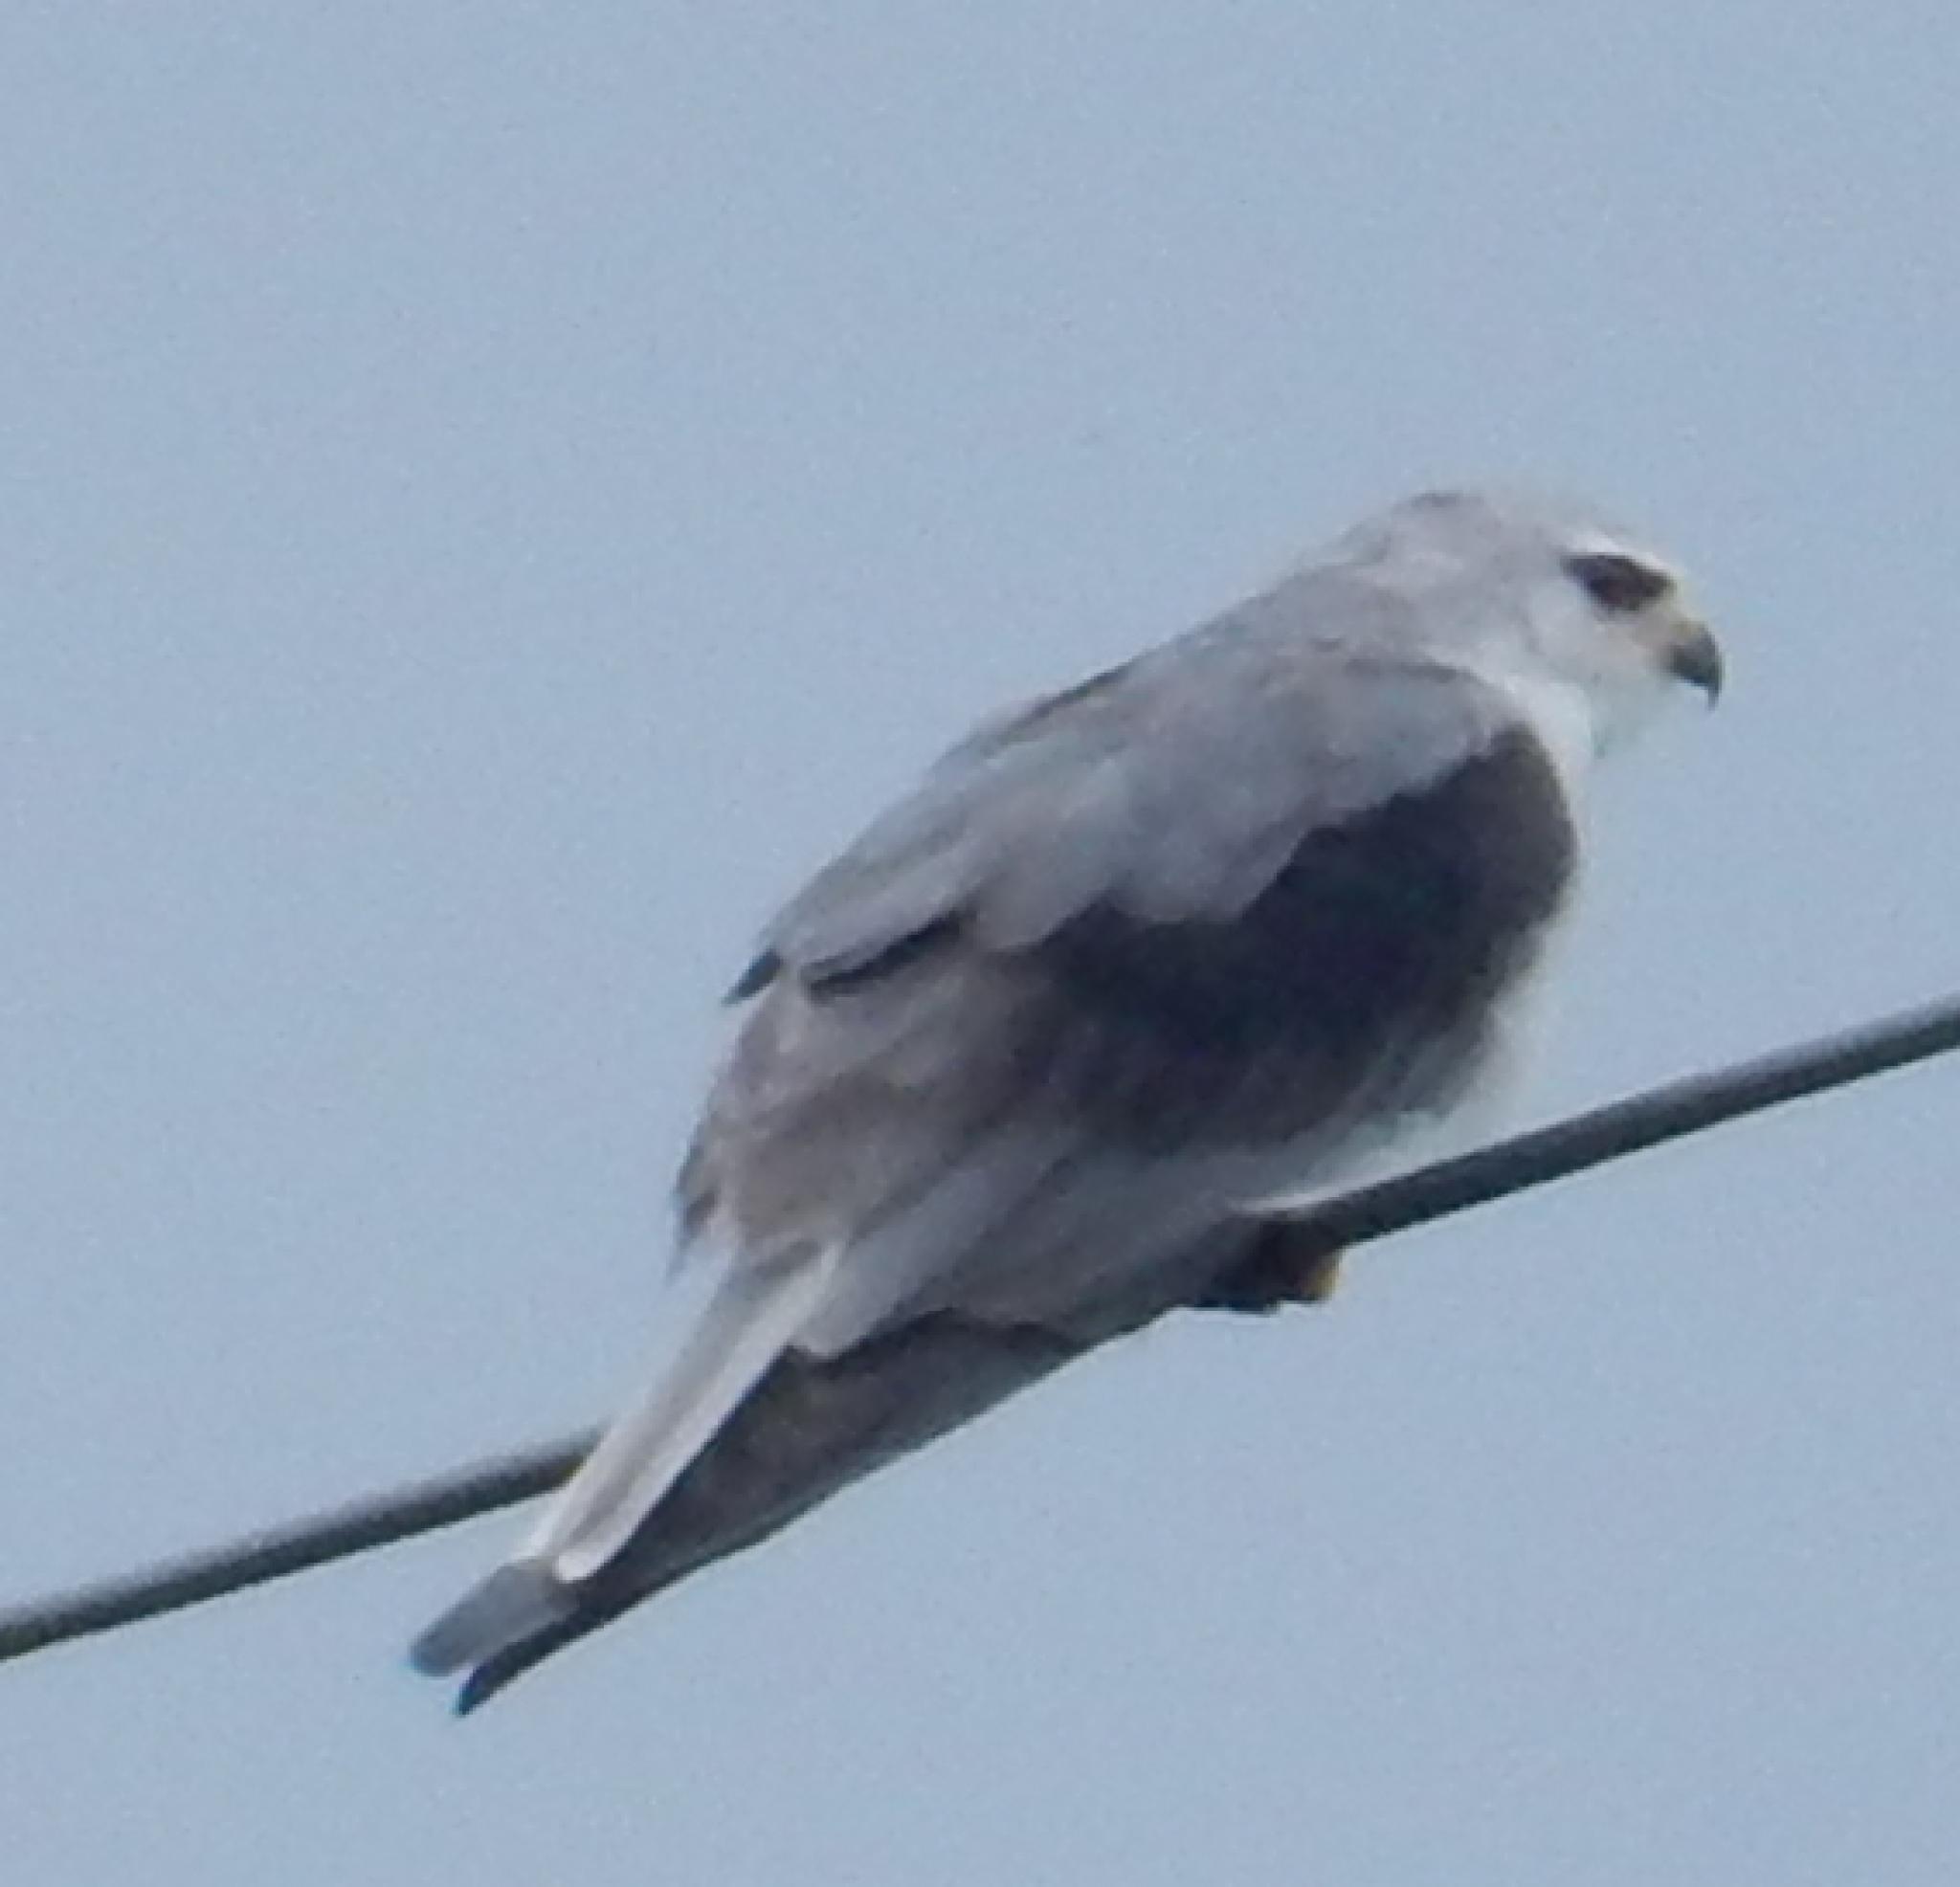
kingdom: Animalia
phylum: Chordata
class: Aves
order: Accipitriformes
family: Accipitridae
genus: Elanus
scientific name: Elanus caeruleus
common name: Black-winged kite
